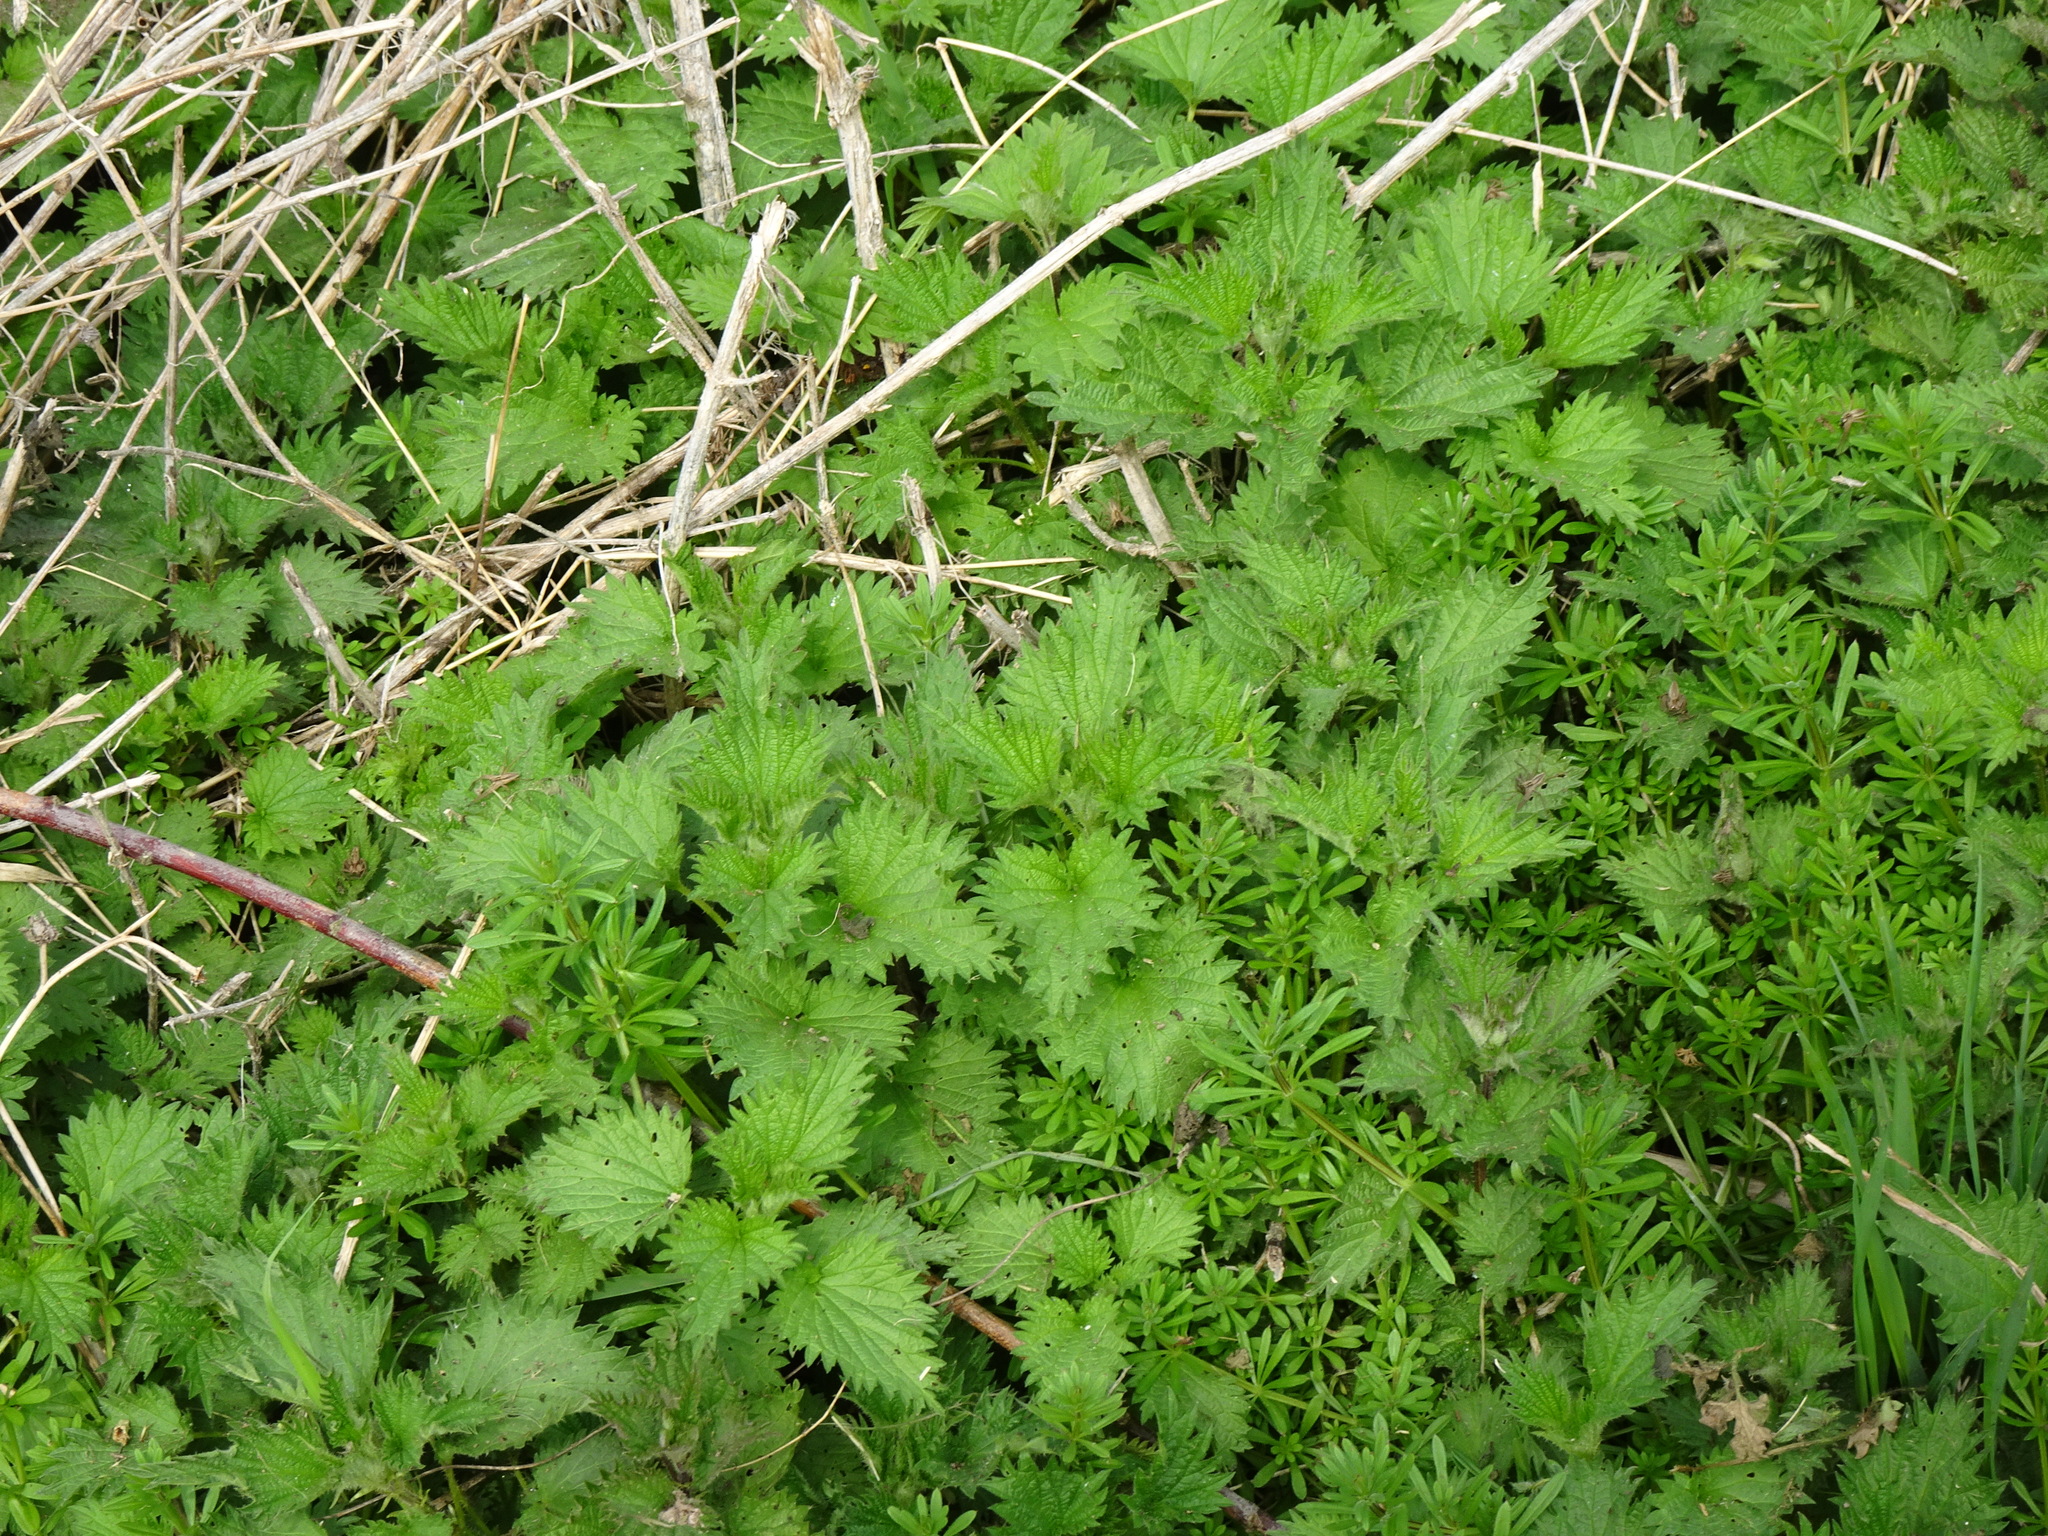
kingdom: Plantae
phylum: Tracheophyta
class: Magnoliopsida
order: Rosales
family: Urticaceae
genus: Urtica
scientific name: Urtica dioica
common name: Common nettle
